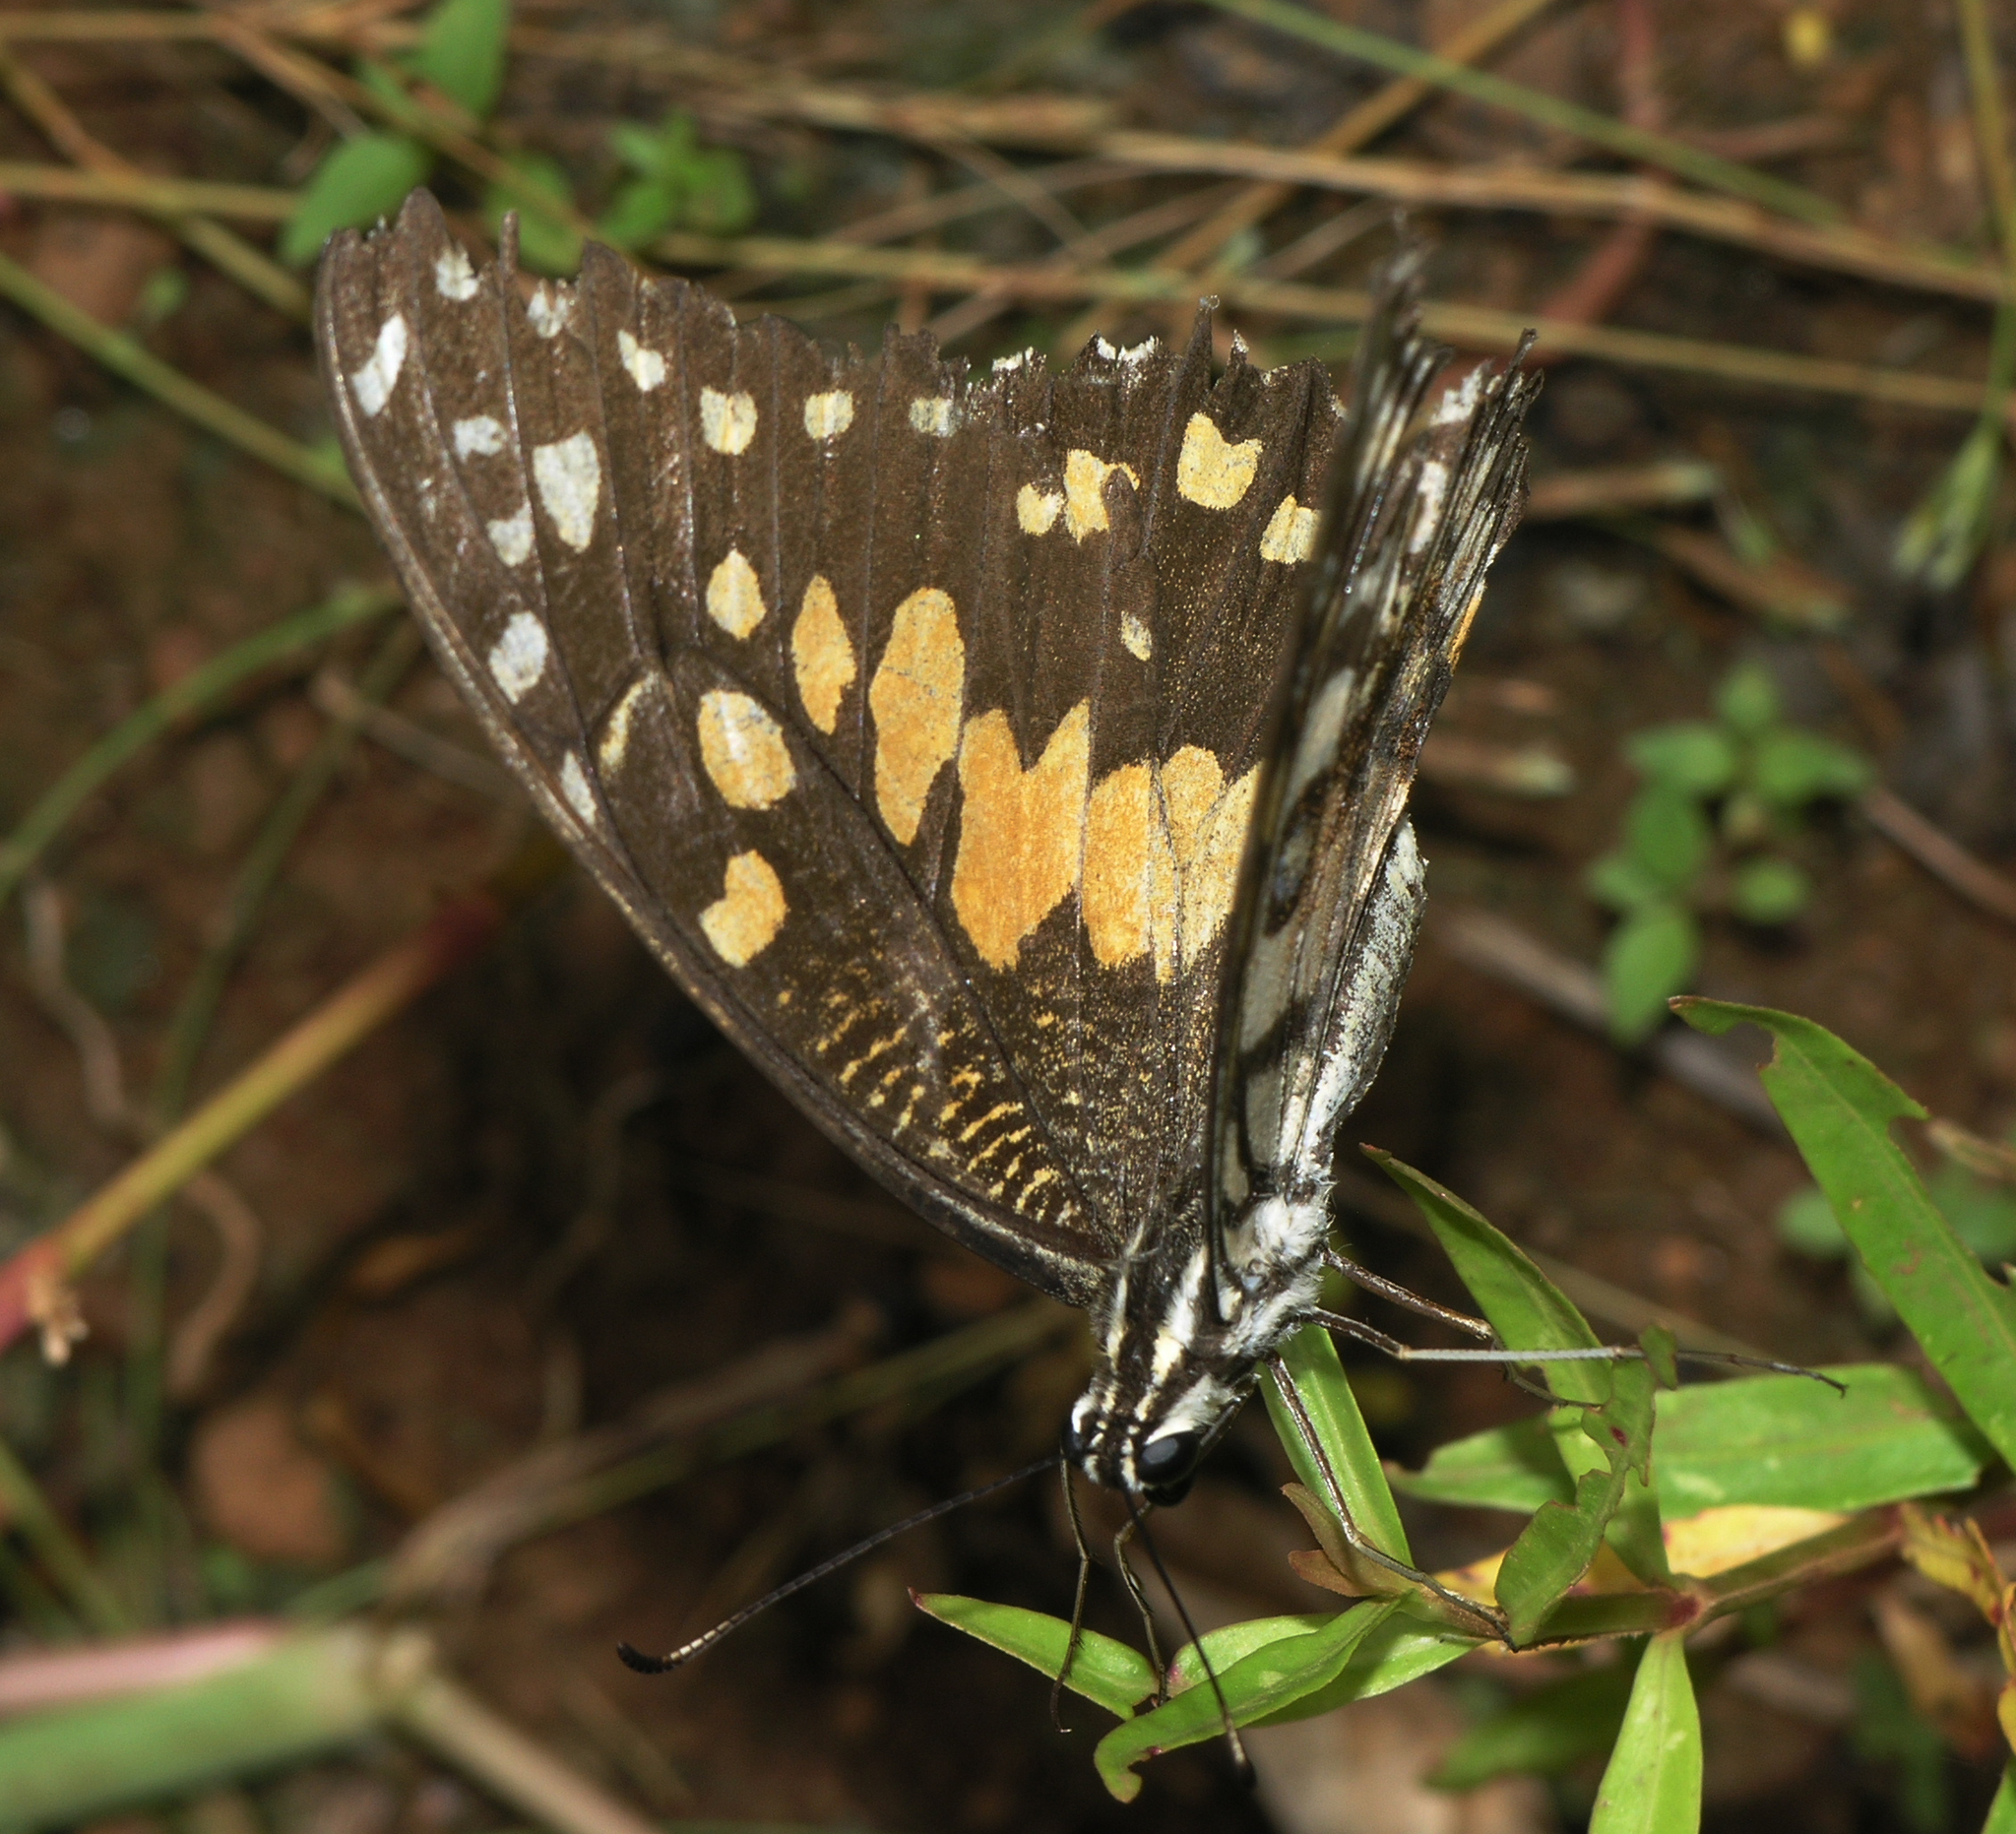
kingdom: Animalia
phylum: Arthropoda
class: Insecta
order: Lepidoptera
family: Papilionidae
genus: Papilio
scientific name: Papilio demoleus
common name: Lime butterfly
